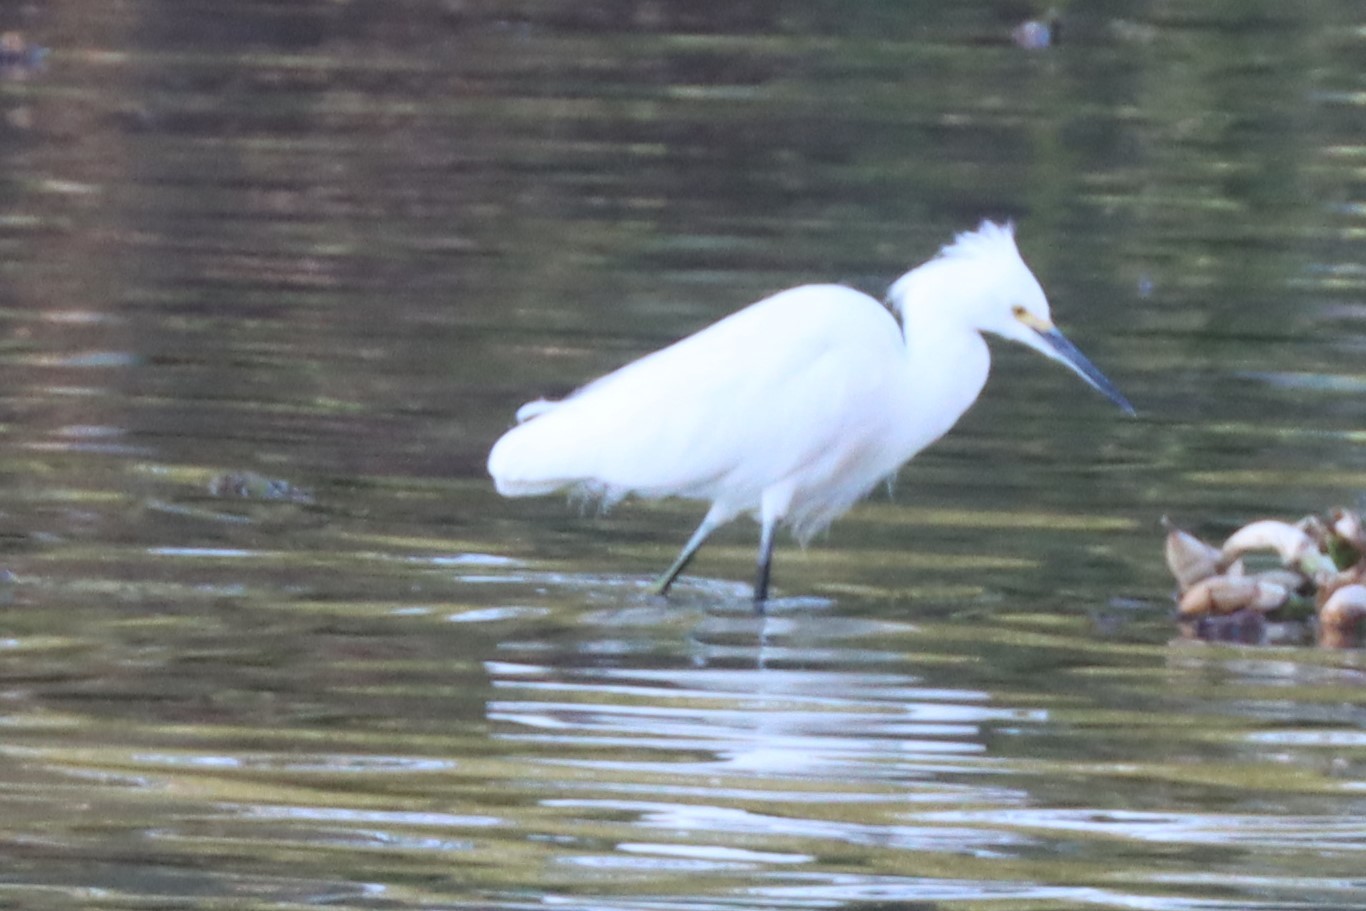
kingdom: Animalia
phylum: Chordata
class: Aves
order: Pelecaniformes
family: Ardeidae
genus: Egretta
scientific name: Egretta thula
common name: Snowy egret
